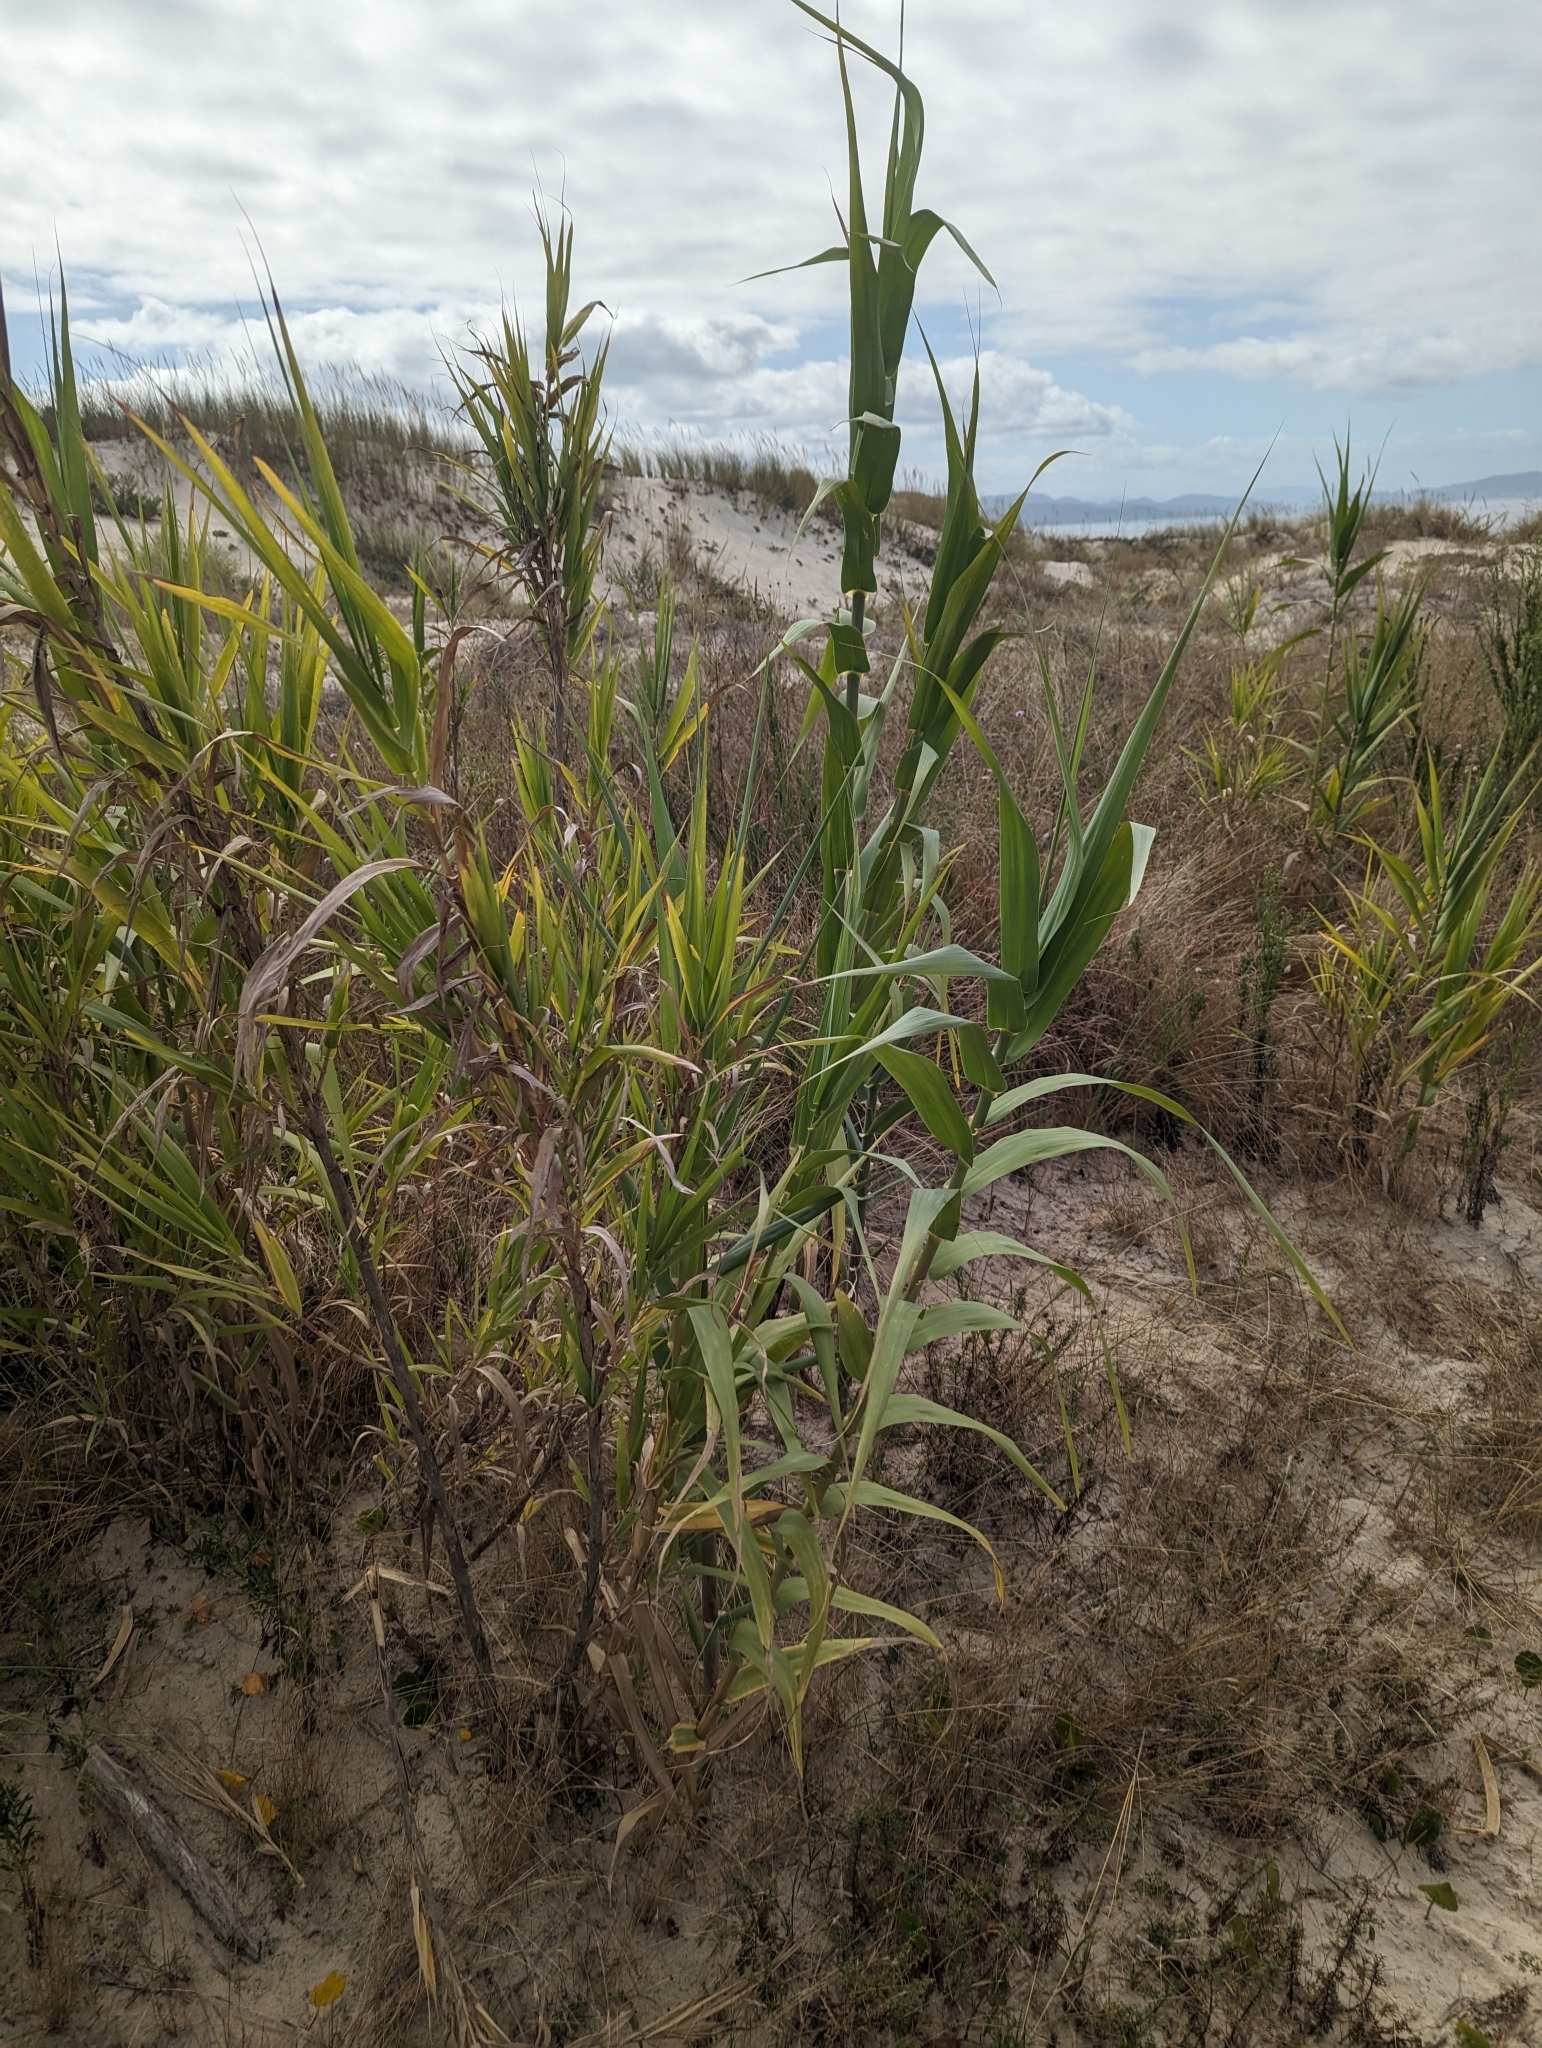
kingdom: Plantae
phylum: Tracheophyta
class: Liliopsida
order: Poales
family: Poaceae
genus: Arundo
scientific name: Arundo donax
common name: Giant reed
